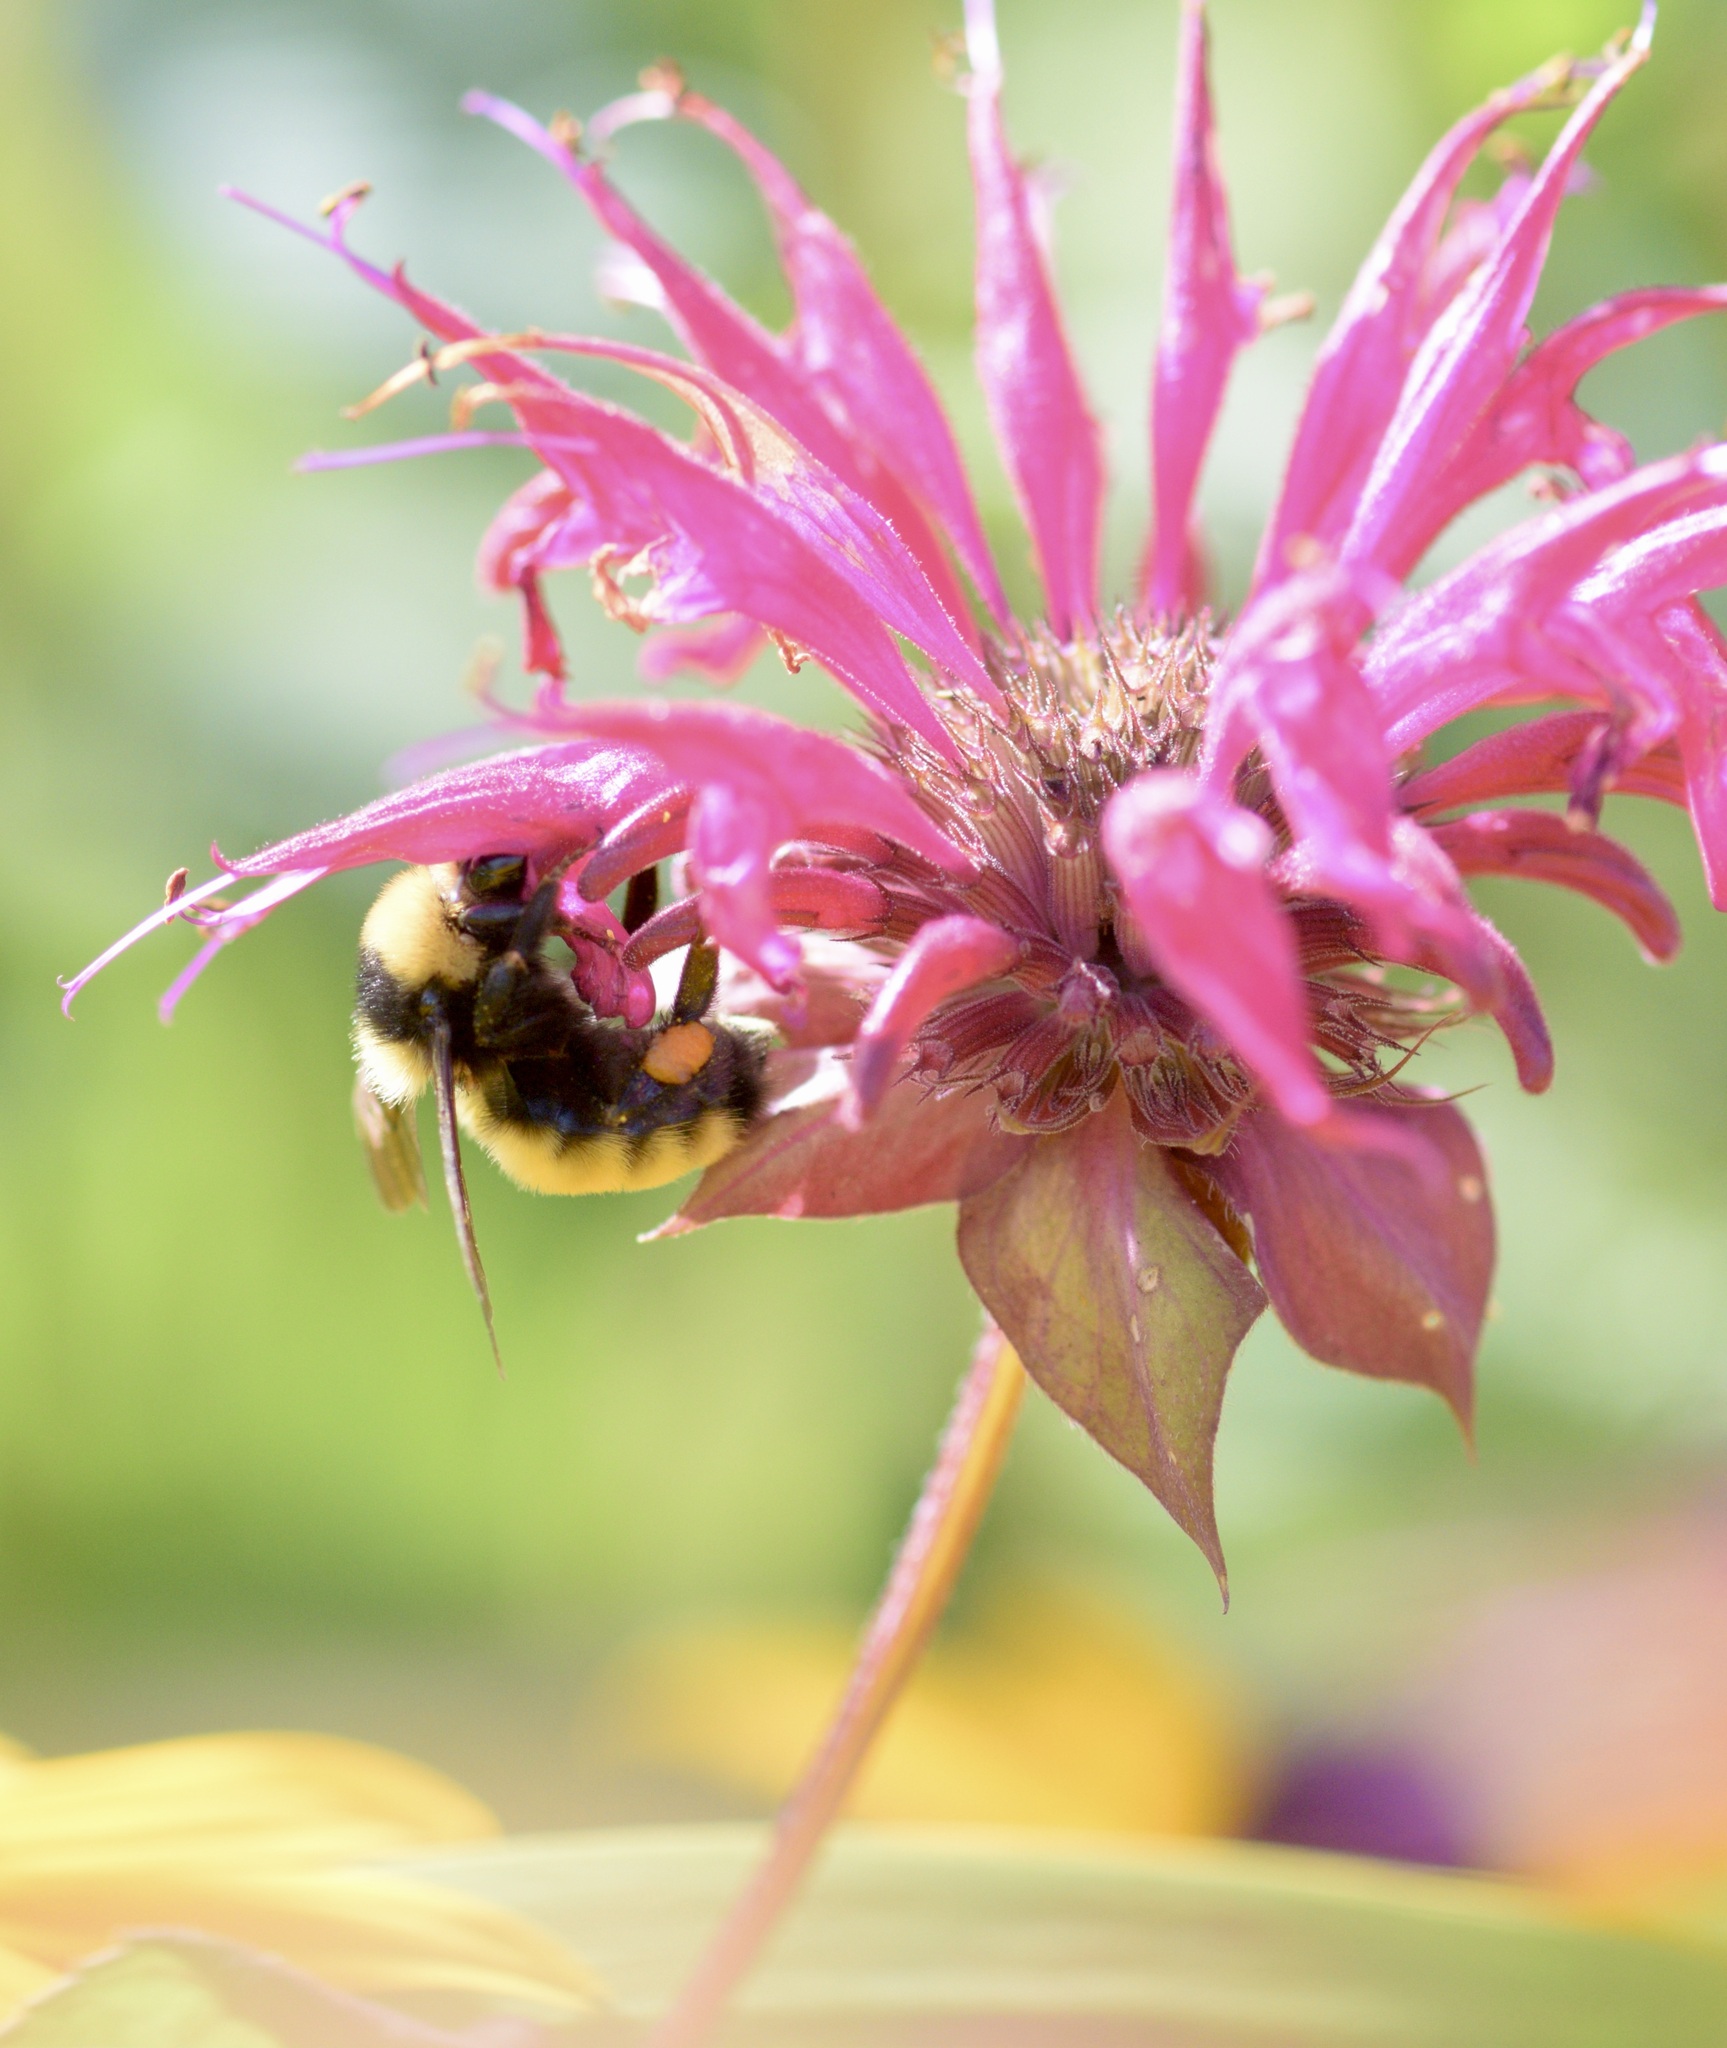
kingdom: Animalia
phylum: Arthropoda
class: Insecta
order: Hymenoptera
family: Apidae
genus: Bombus
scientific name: Bombus borealis
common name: Northern amber bumble bee
